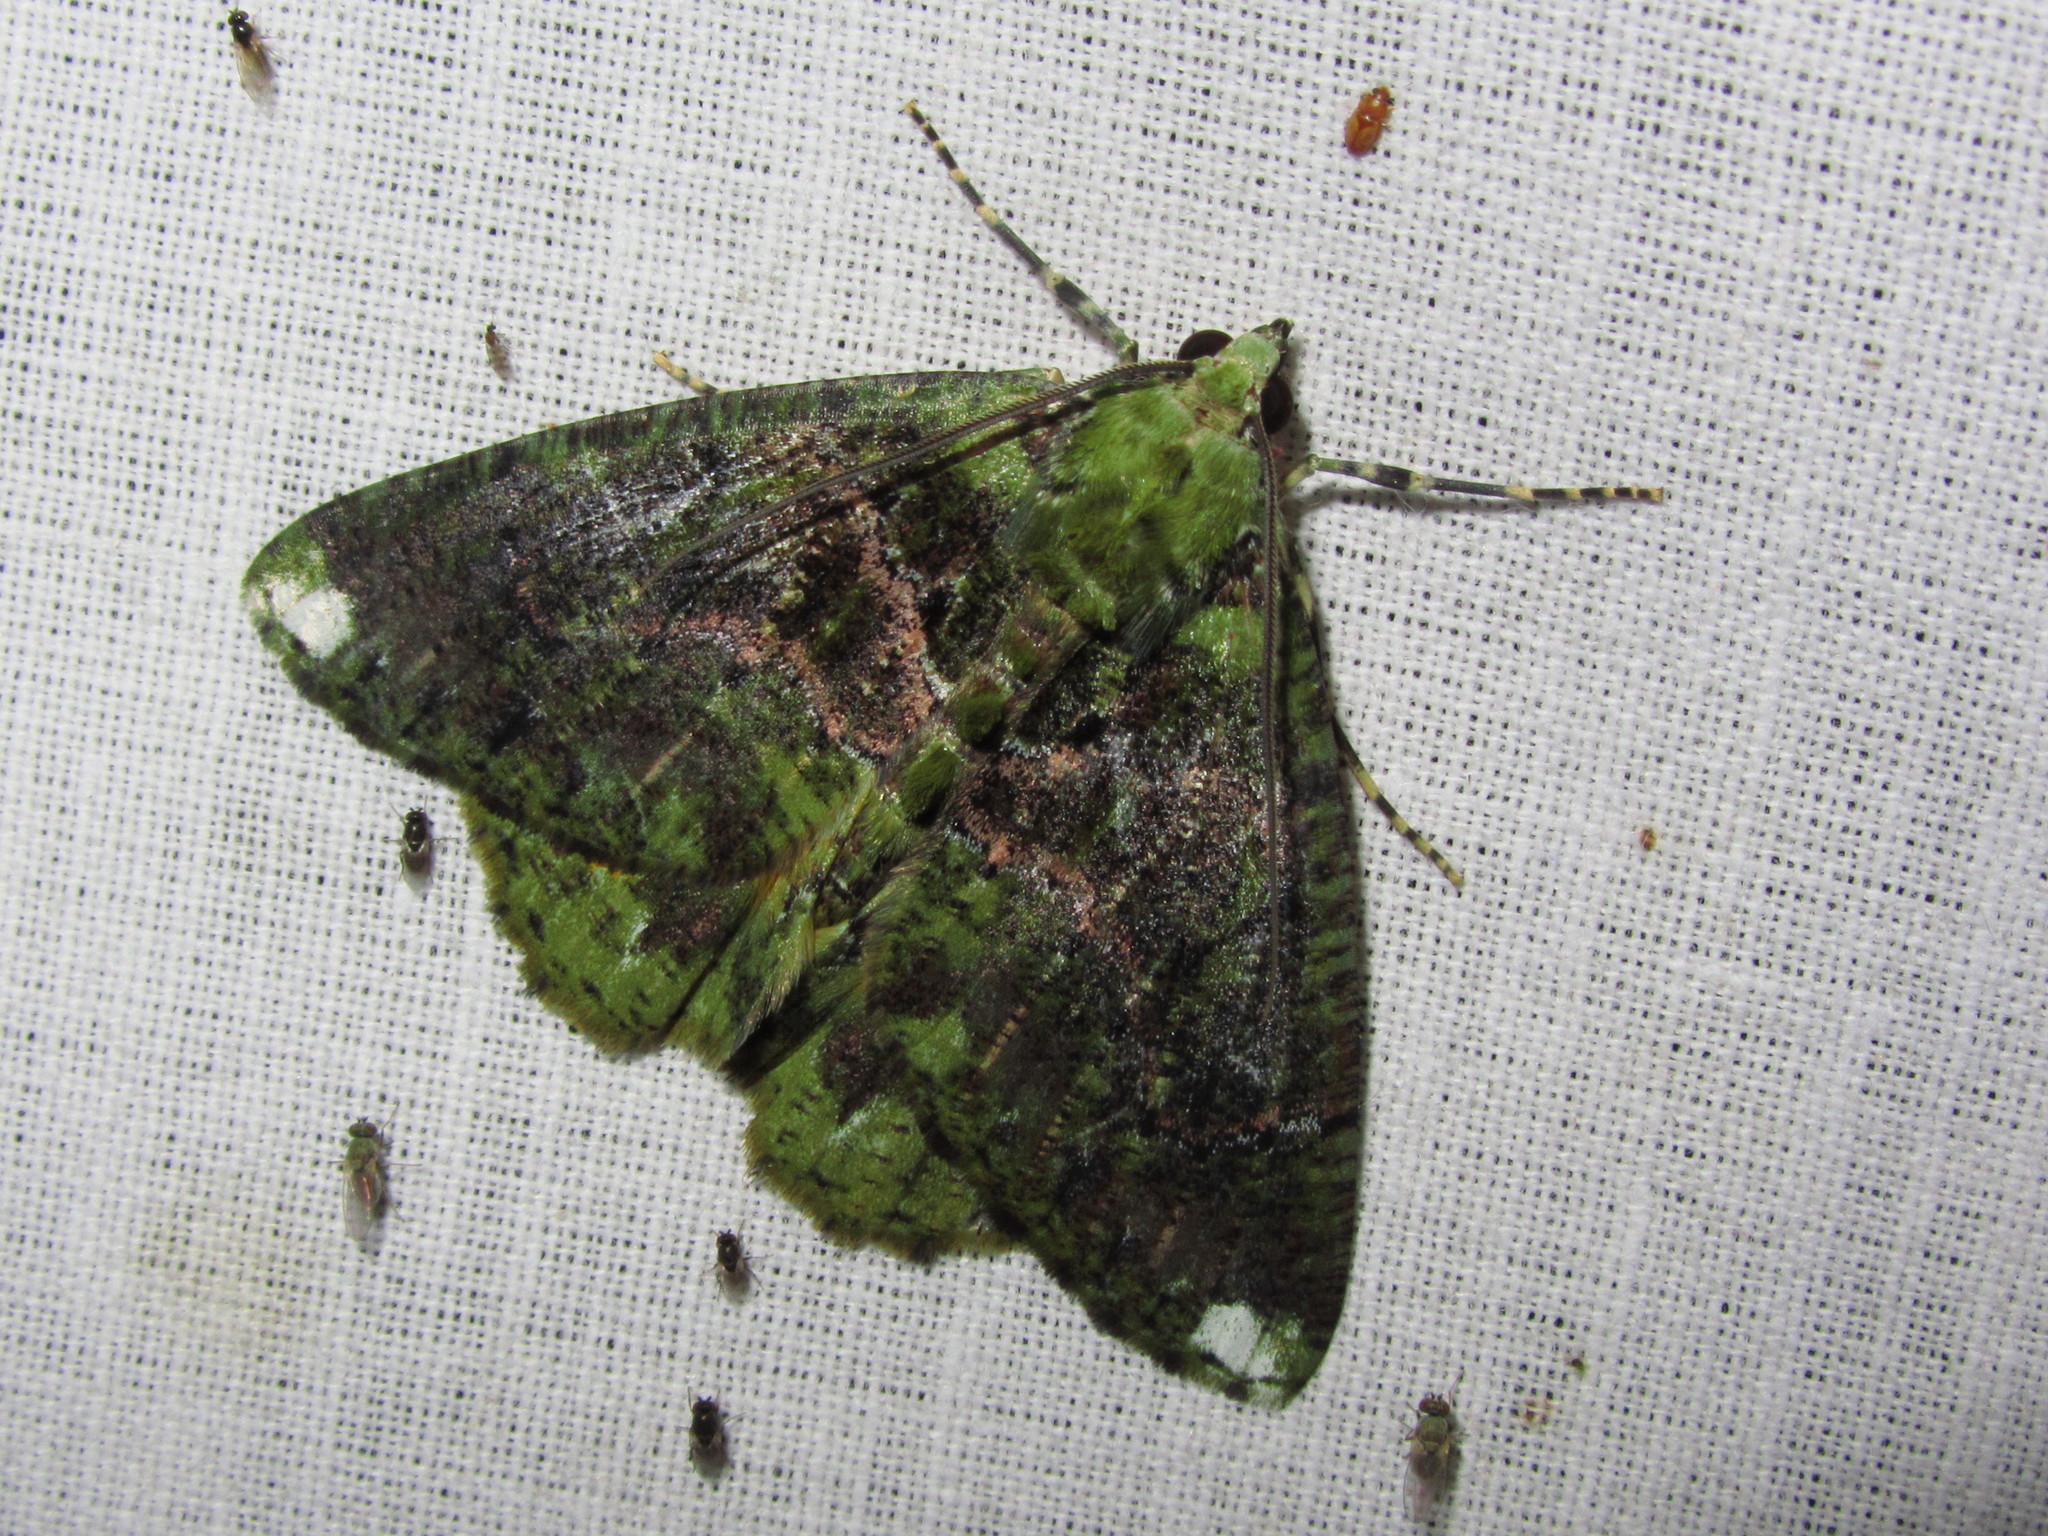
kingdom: Animalia
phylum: Arthropoda
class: Insecta
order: Lepidoptera
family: Geometridae
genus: Dindicodes
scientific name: Dindicodes crocina
